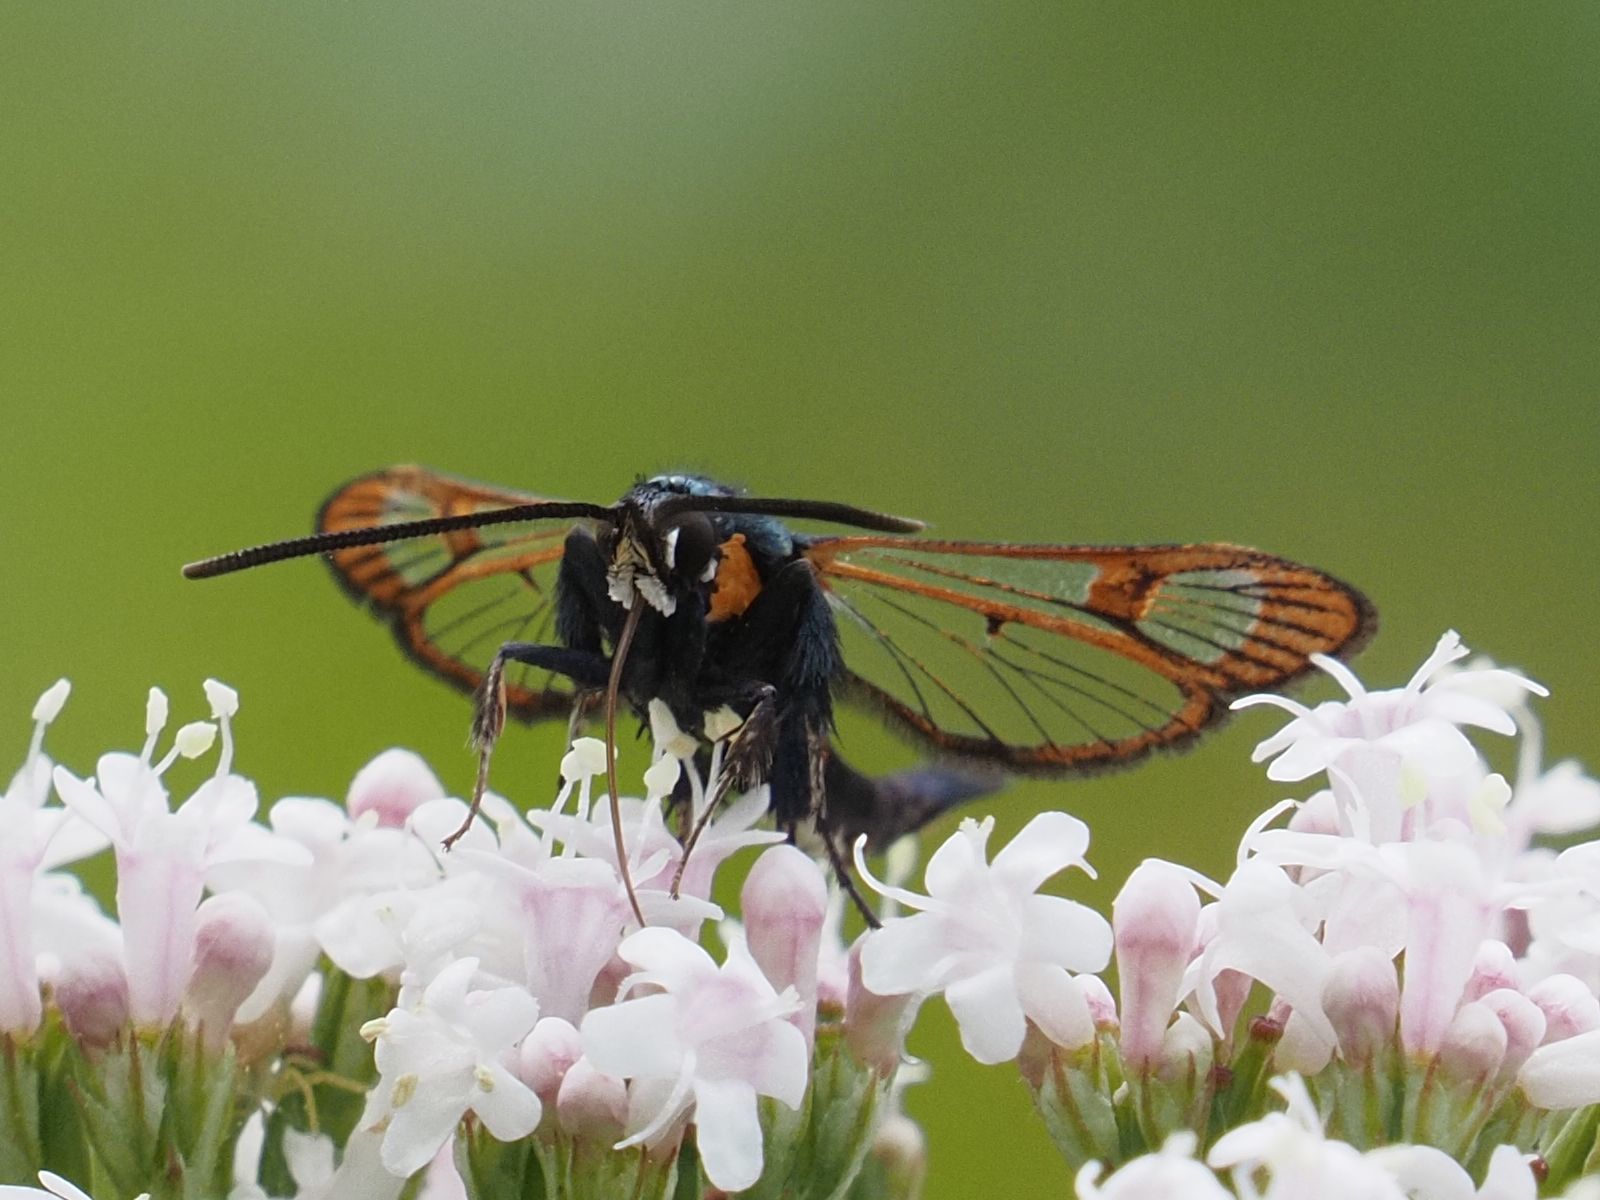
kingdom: Animalia
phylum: Arthropoda
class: Insecta
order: Lepidoptera
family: Sesiidae
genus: Synanthedon
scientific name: Synanthedon myopaeformis
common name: Red-belted clearwing
